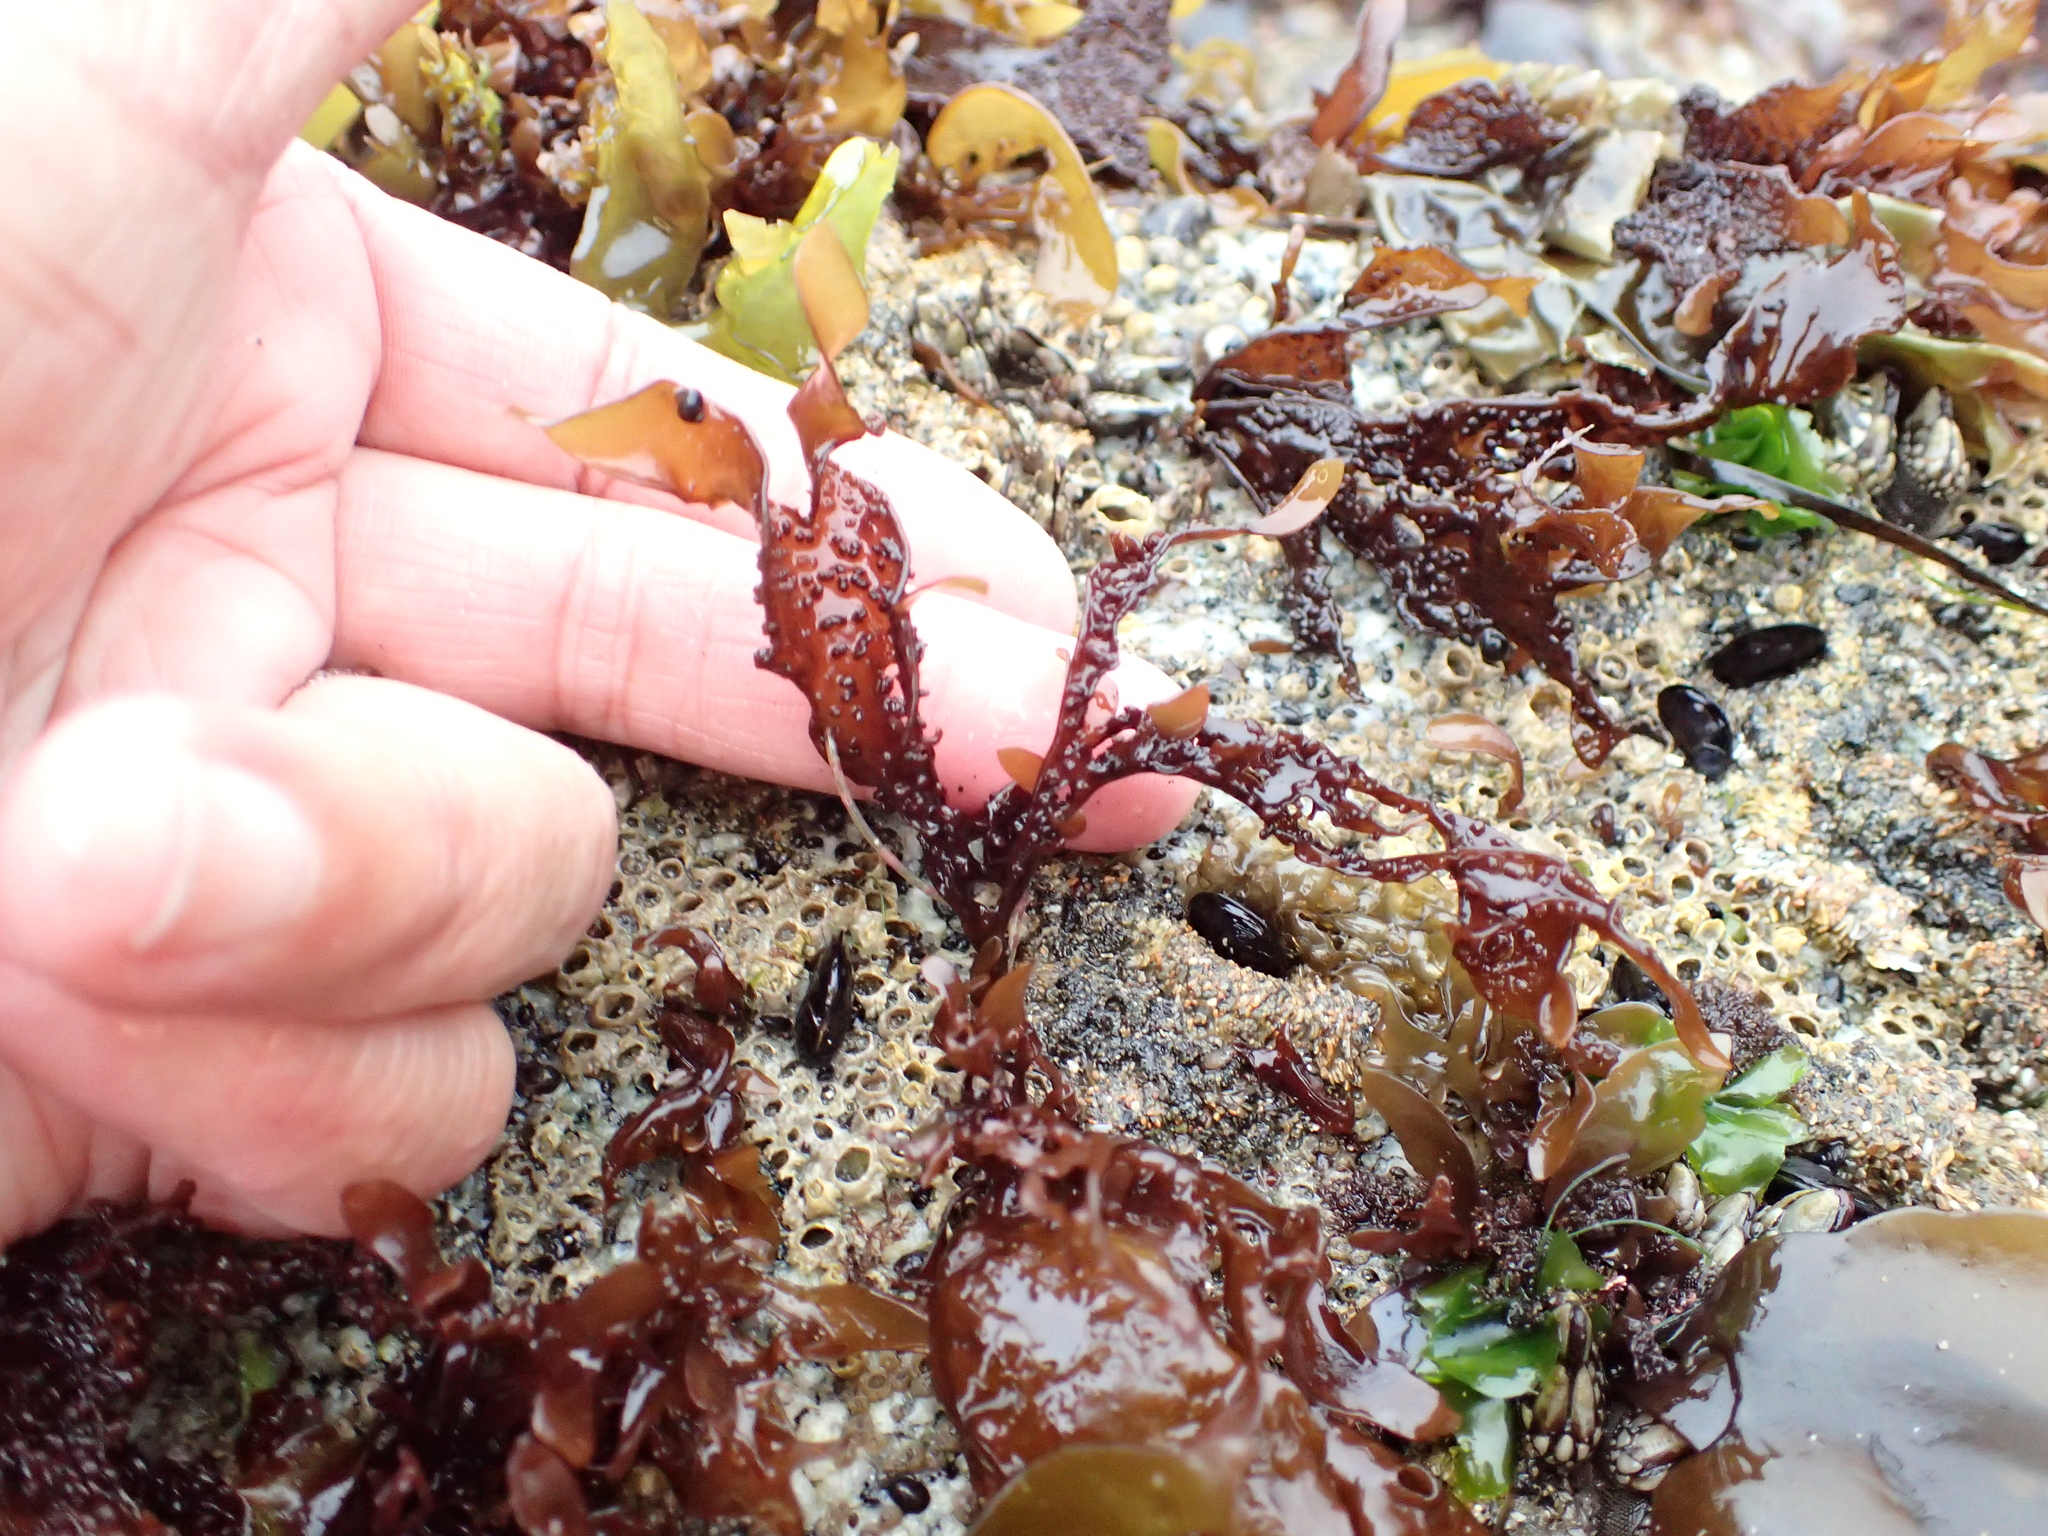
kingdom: Plantae
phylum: Rhodophyta
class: Florideophyceae
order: Gigartinales
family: Phyllophoraceae
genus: Mastocarpus
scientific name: Mastocarpus papillatus
